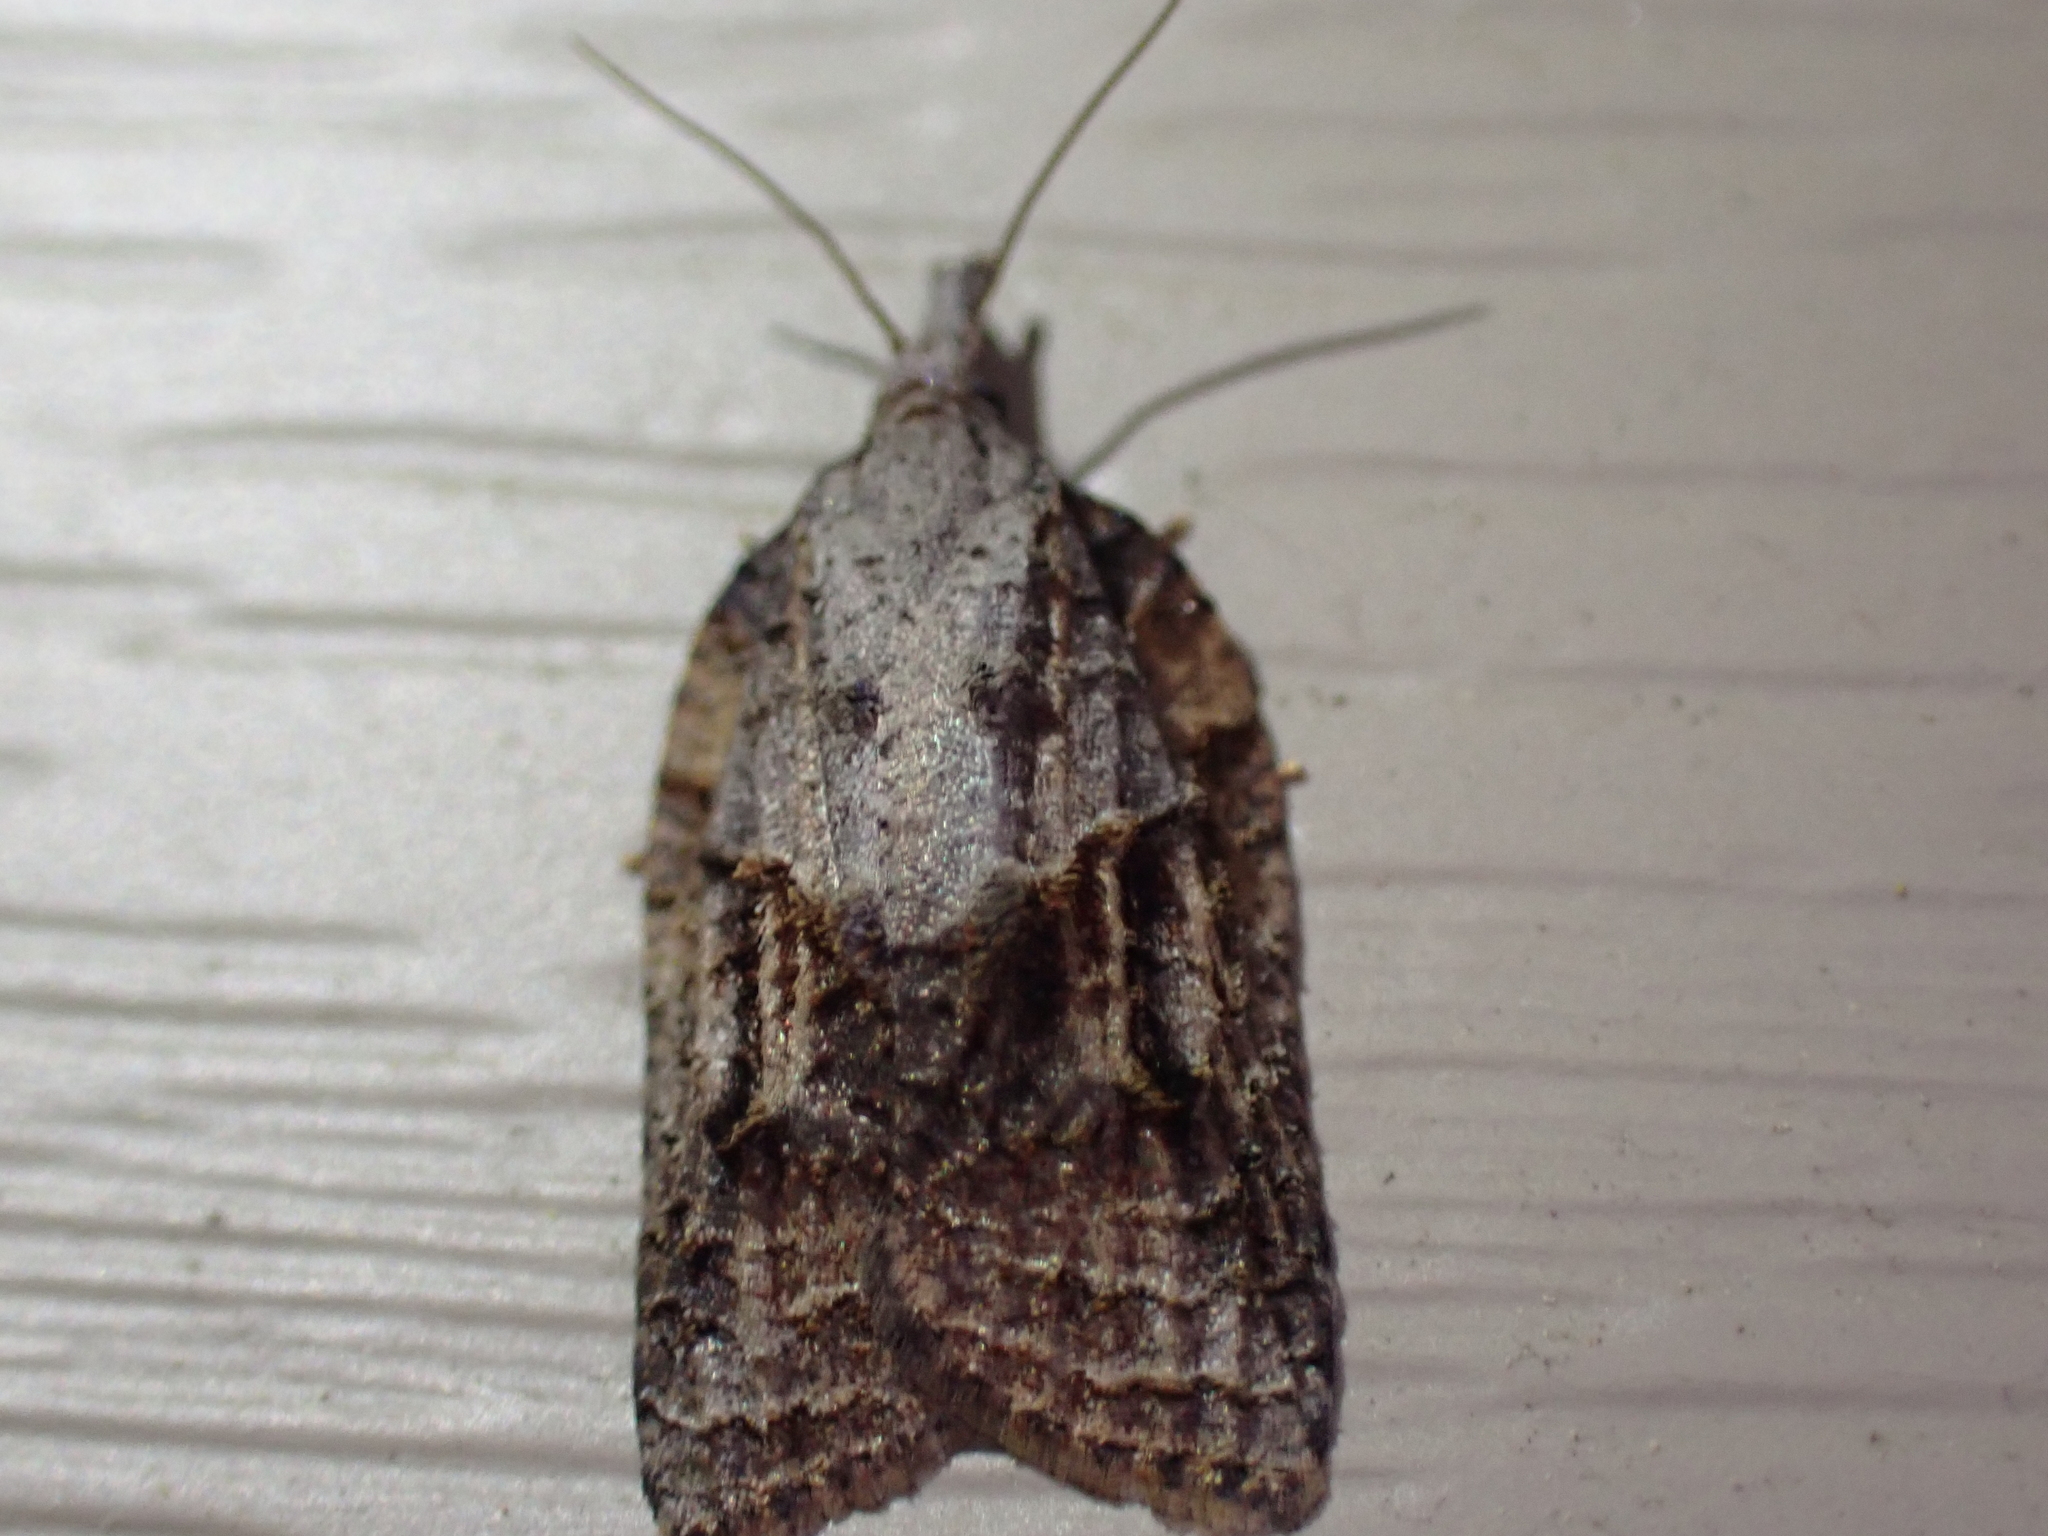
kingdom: Animalia
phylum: Arthropoda
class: Insecta
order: Lepidoptera
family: Tortricidae
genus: Platynota
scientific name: Platynota idaeusalis
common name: Tufted apple bud moth
